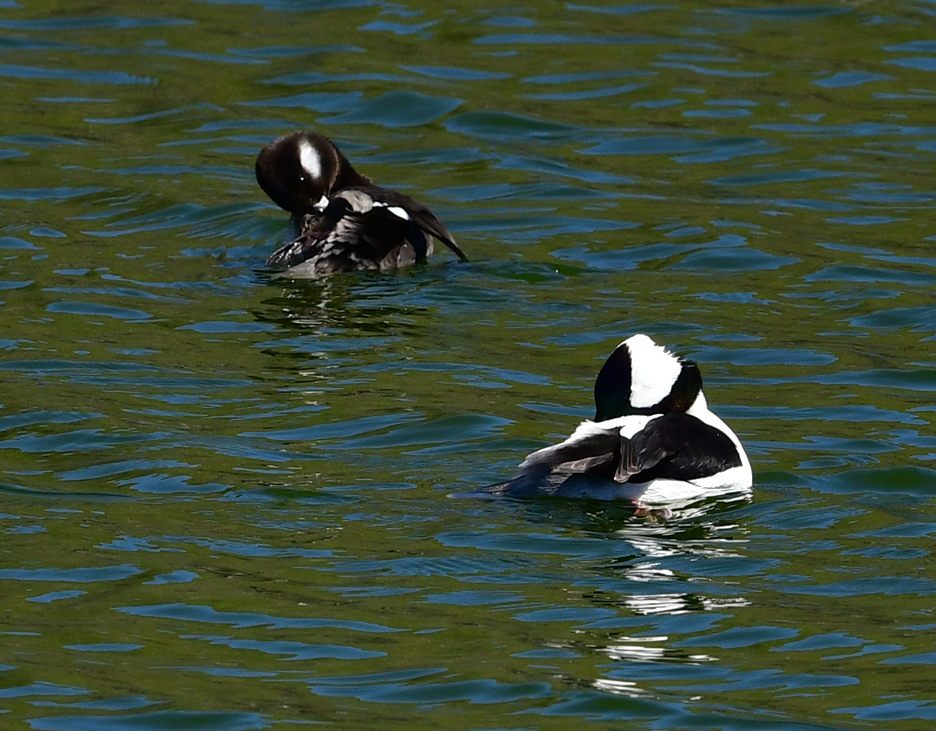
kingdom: Animalia
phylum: Chordata
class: Aves
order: Anseriformes
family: Anatidae
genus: Bucephala
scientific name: Bucephala albeola
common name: Bufflehead
